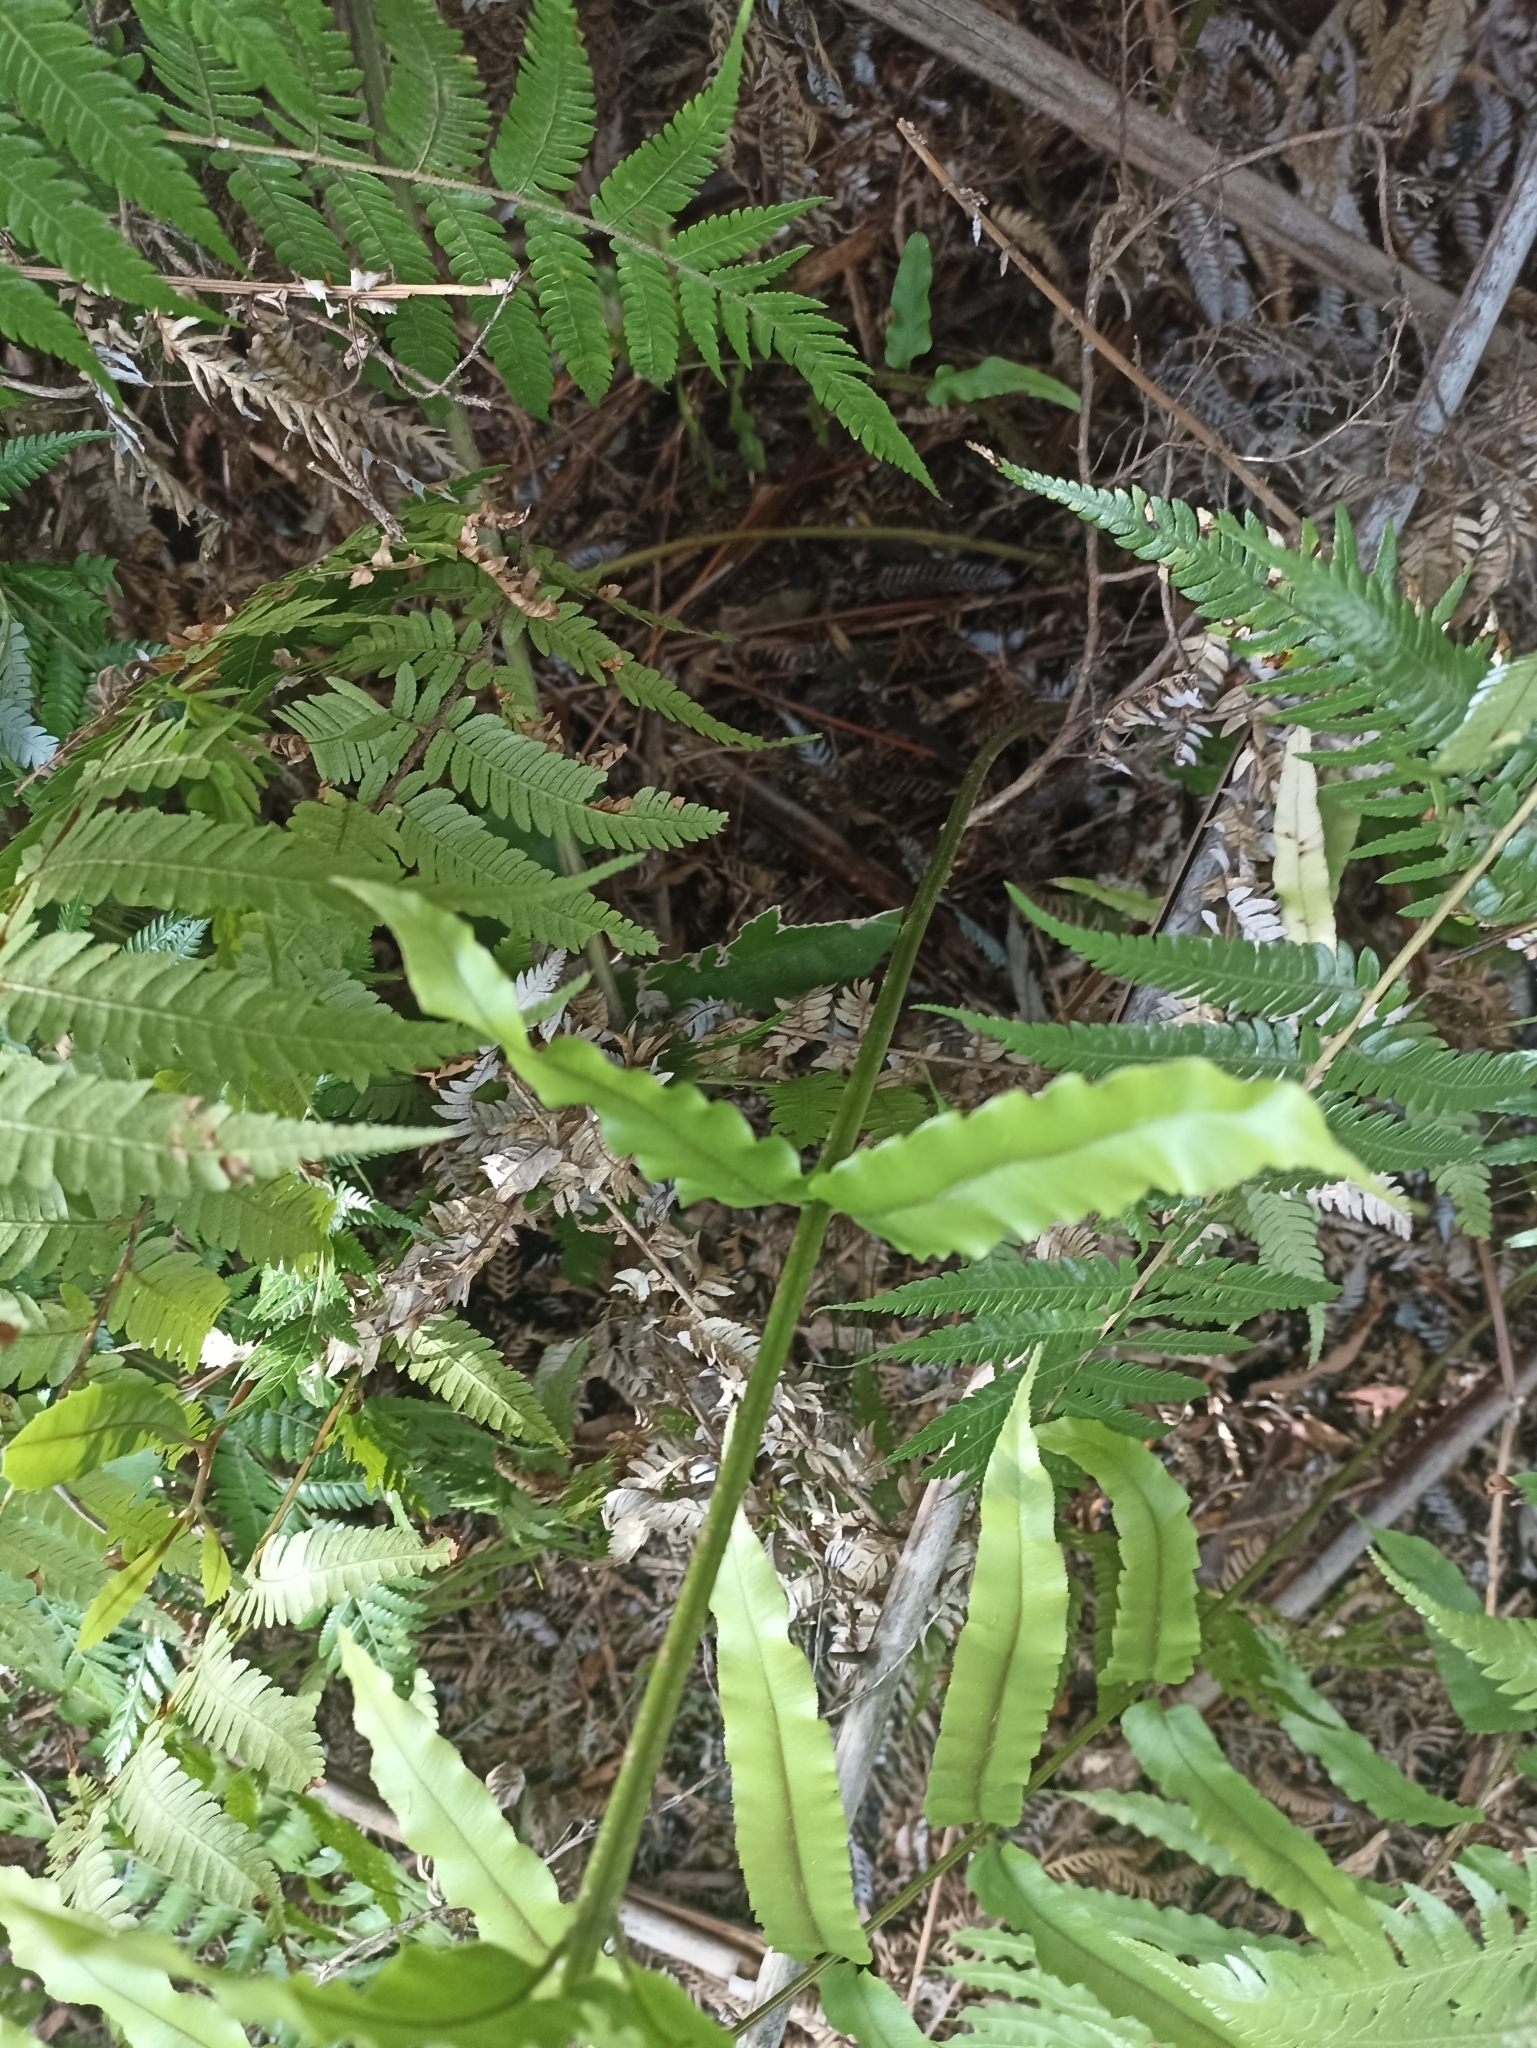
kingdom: Plantae
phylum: Tracheophyta
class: Polypodiopsida
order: Polypodiales
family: Blechnaceae
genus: Parablechnum
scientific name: Parablechnum novae-zelandiae
